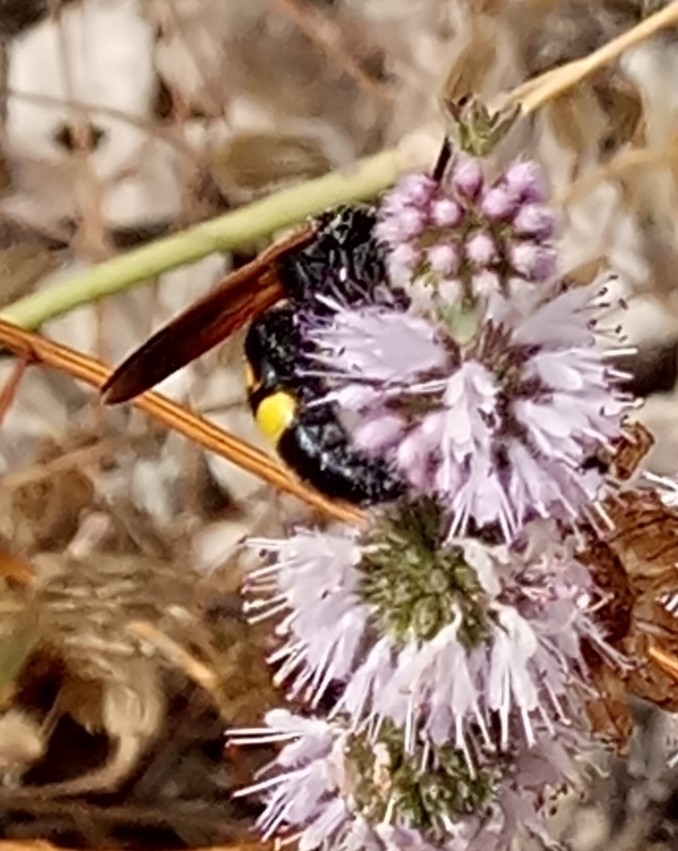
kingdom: Animalia
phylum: Arthropoda
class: Insecta
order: Hymenoptera
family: Scoliidae
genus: Megascolia
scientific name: Megascolia maculata
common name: Mammoth wasp
